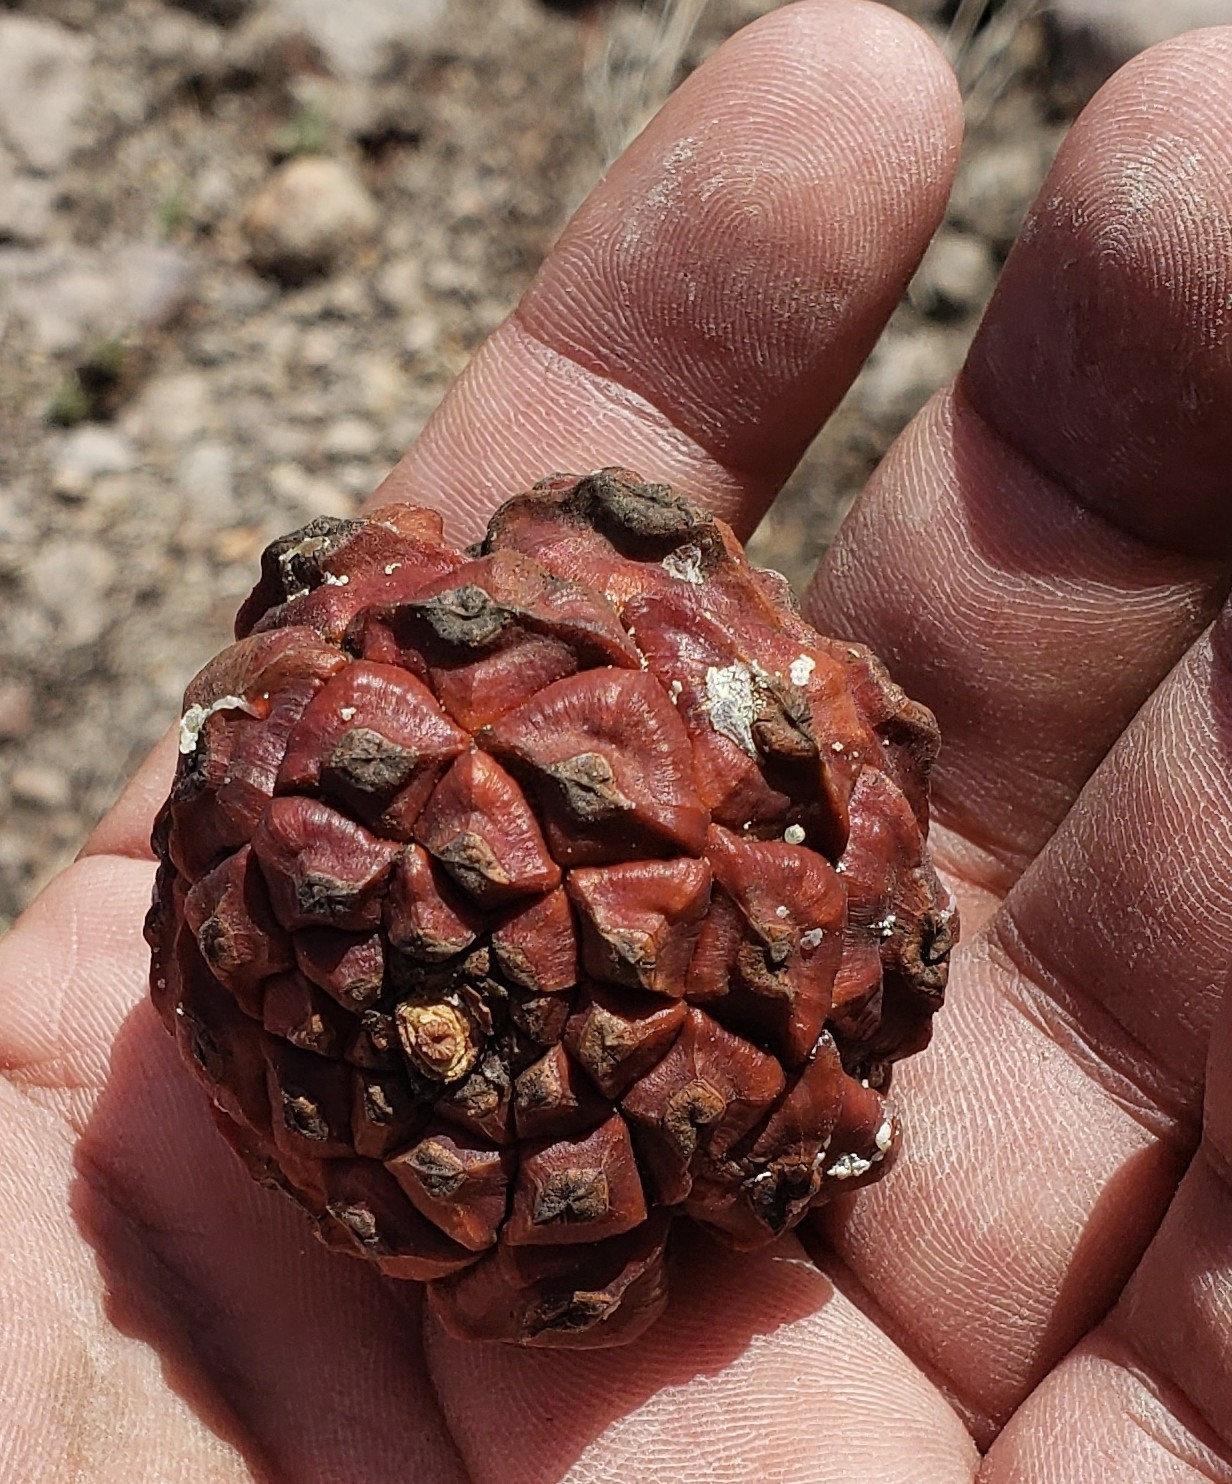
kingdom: Plantae
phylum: Tracheophyta
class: Pinopsida
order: Pinales
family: Pinaceae
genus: Pinus
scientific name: Pinus cembroides
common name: Mexican nut pine
